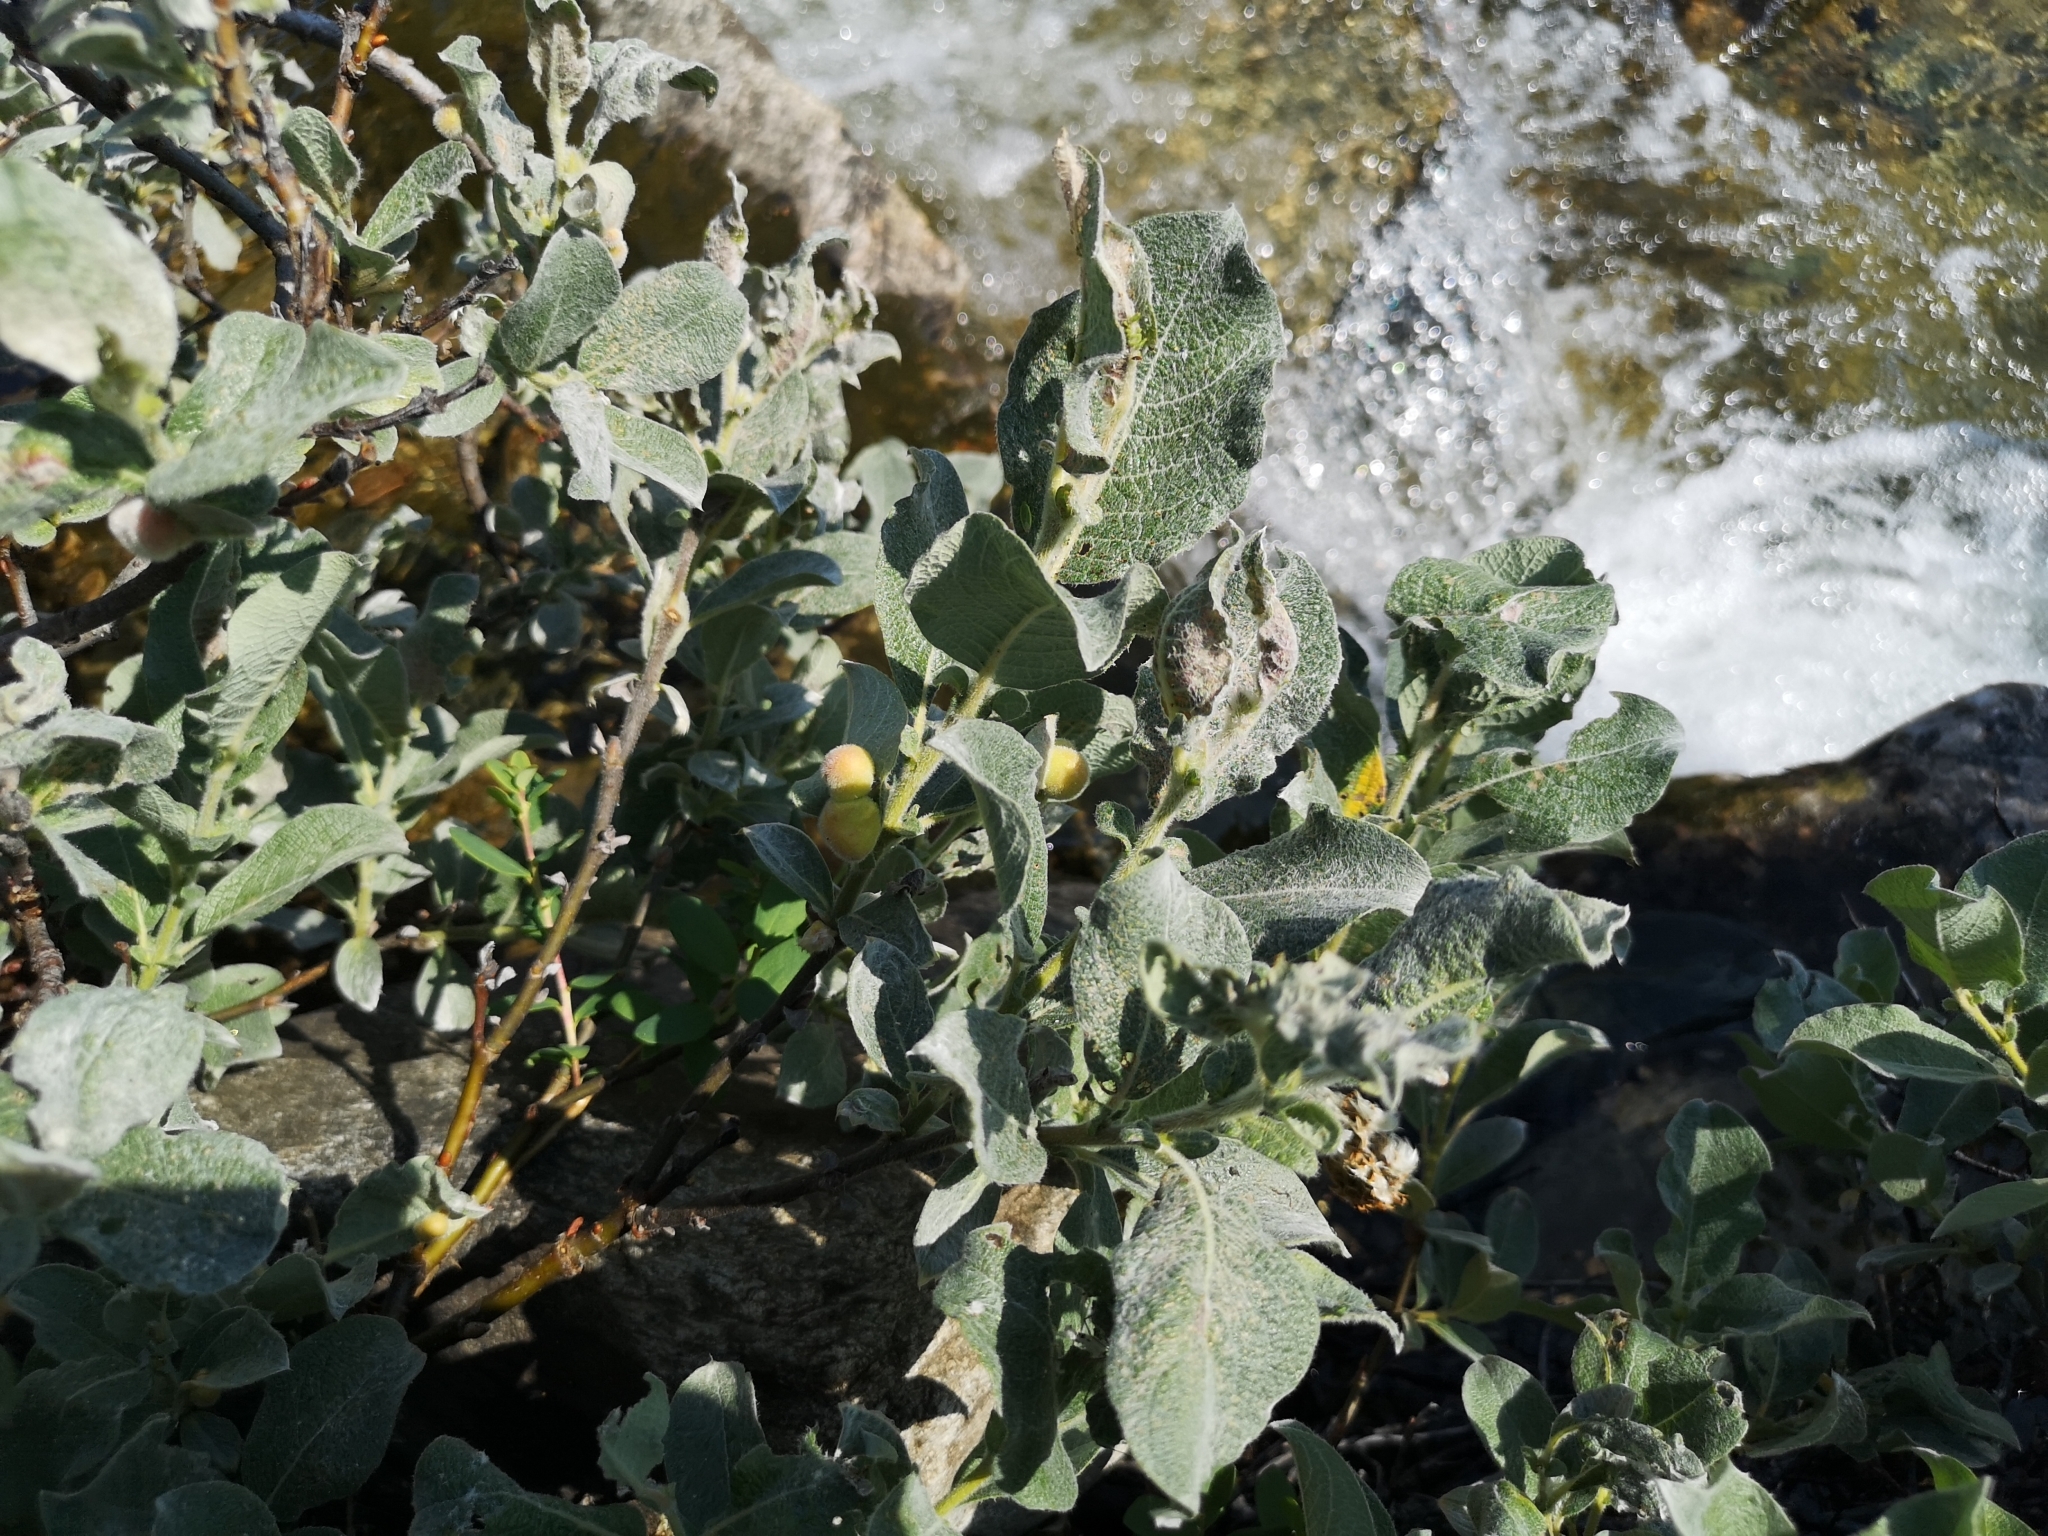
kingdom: Plantae
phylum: Tracheophyta
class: Magnoliopsida
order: Malpighiales
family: Salicaceae
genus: Salix
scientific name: Salix lanata
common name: Woolly willow
